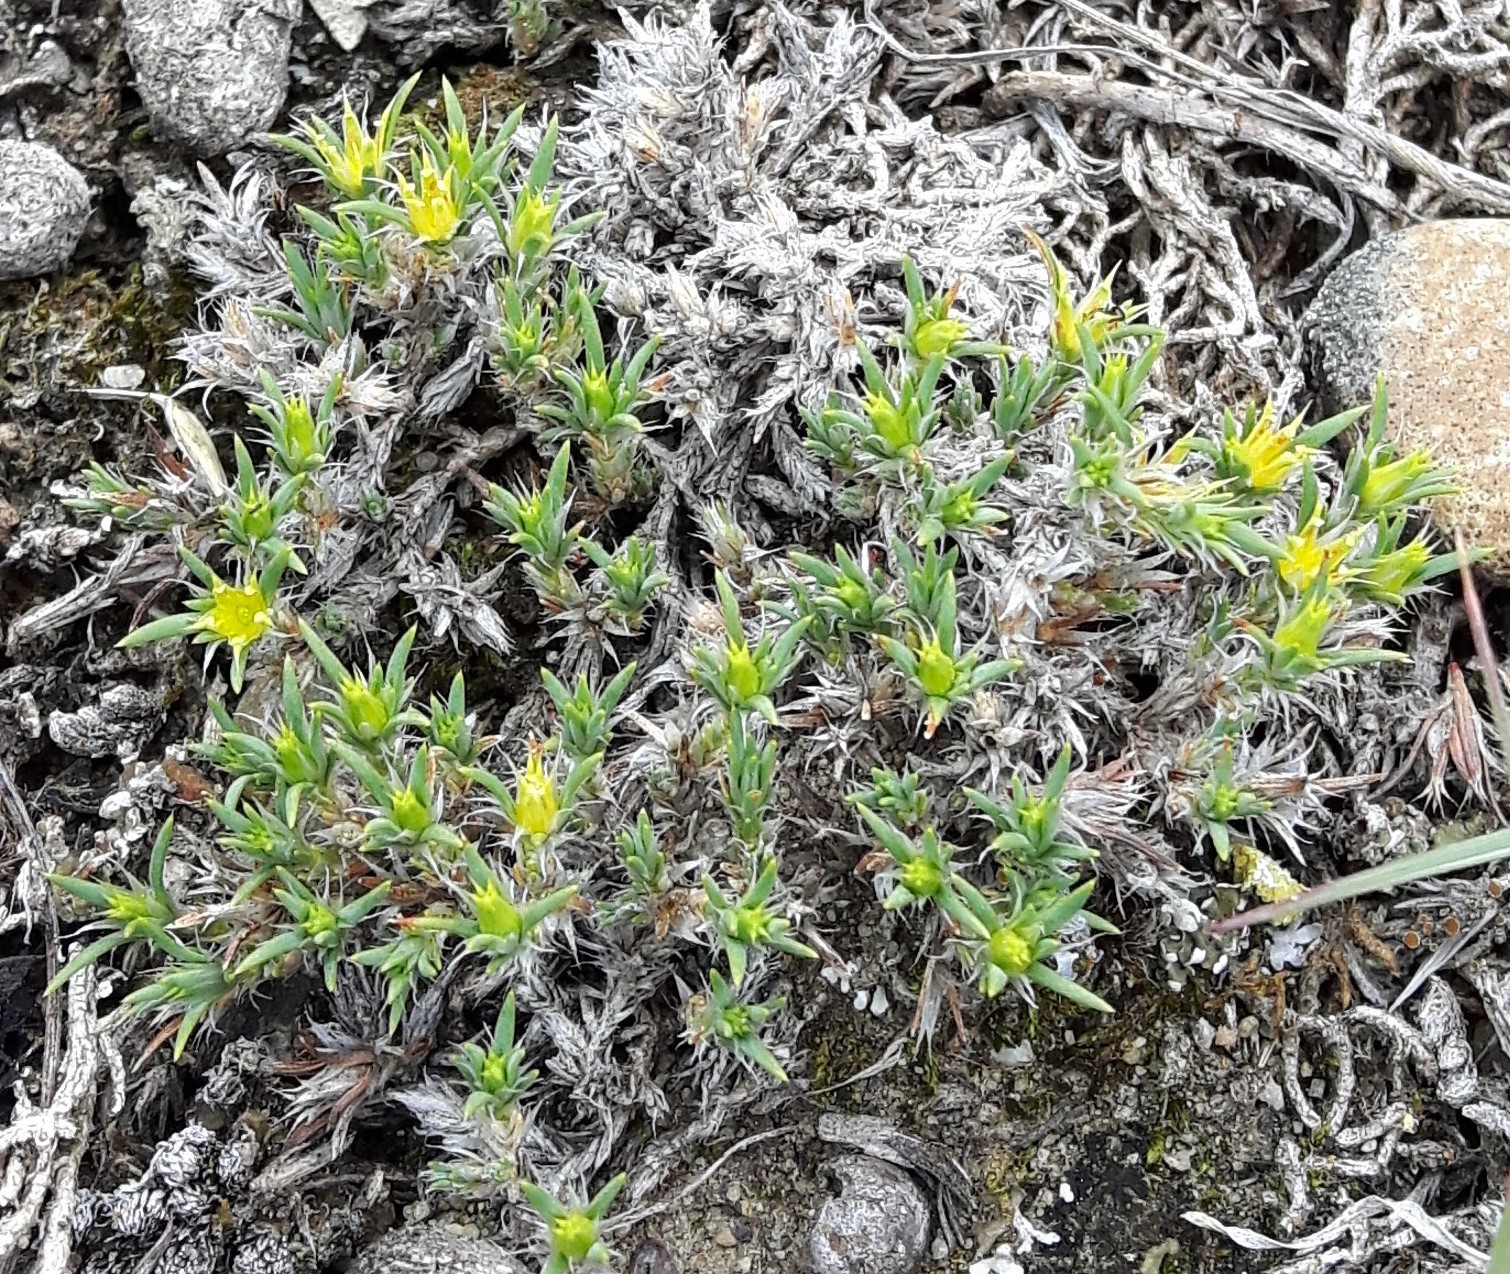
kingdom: Plantae
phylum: Tracheophyta
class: Magnoliopsida
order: Caryophyllales
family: Caryophyllaceae
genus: Paronychia
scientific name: Paronychia sessiliflora
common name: Creeping nailwort
